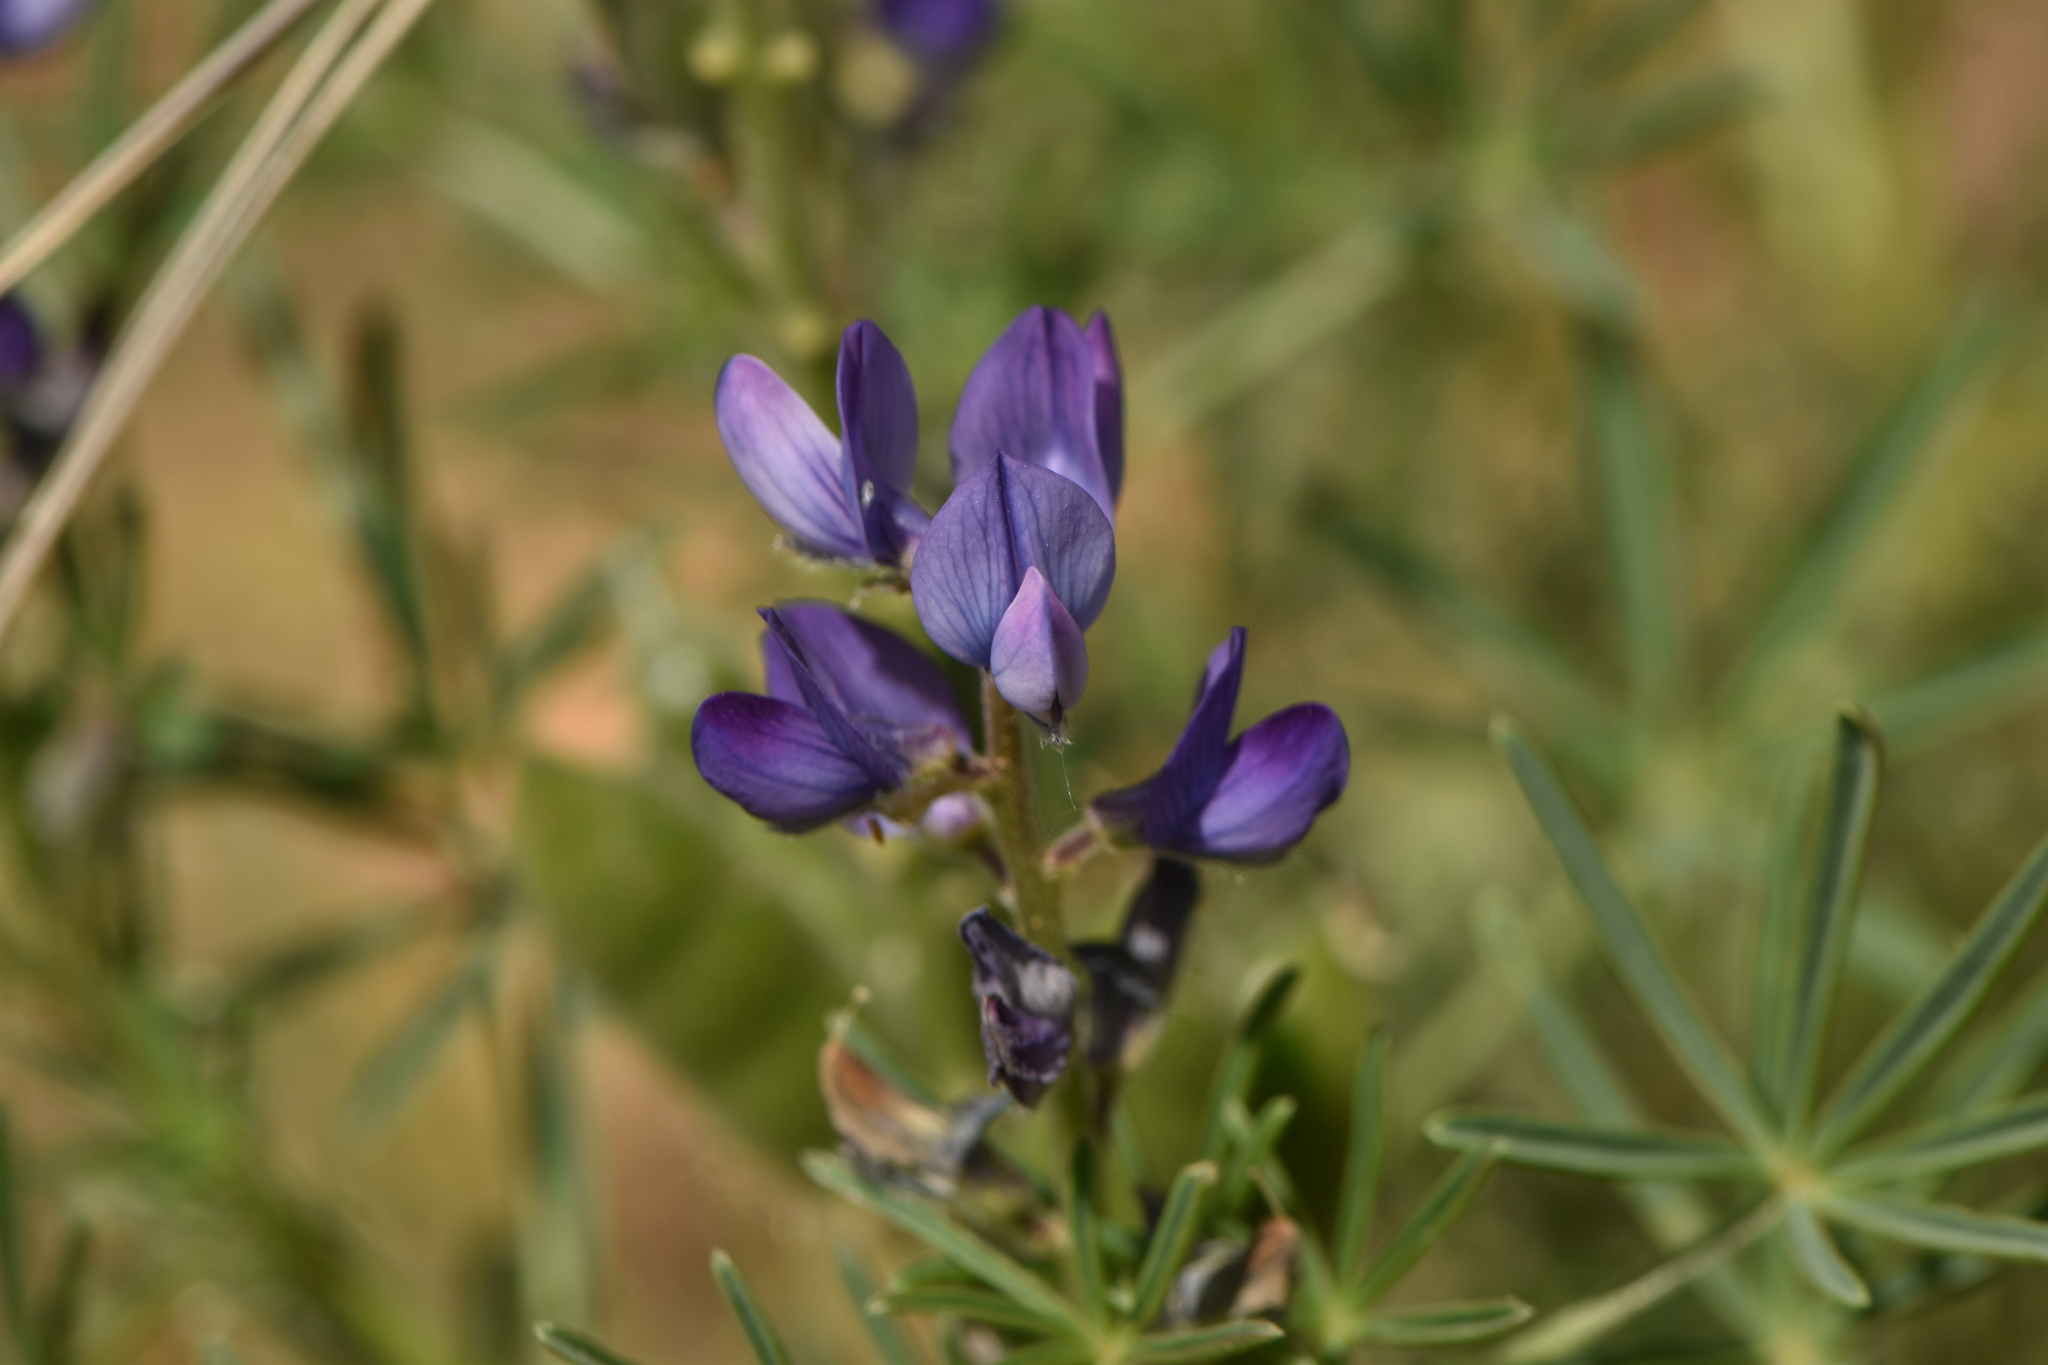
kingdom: Plantae
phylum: Tracheophyta
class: Magnoliopsida
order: Fabales
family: Fabaceae
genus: Lupinus
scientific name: Lupinus angustifolius
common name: Narrow-leaved lupin
